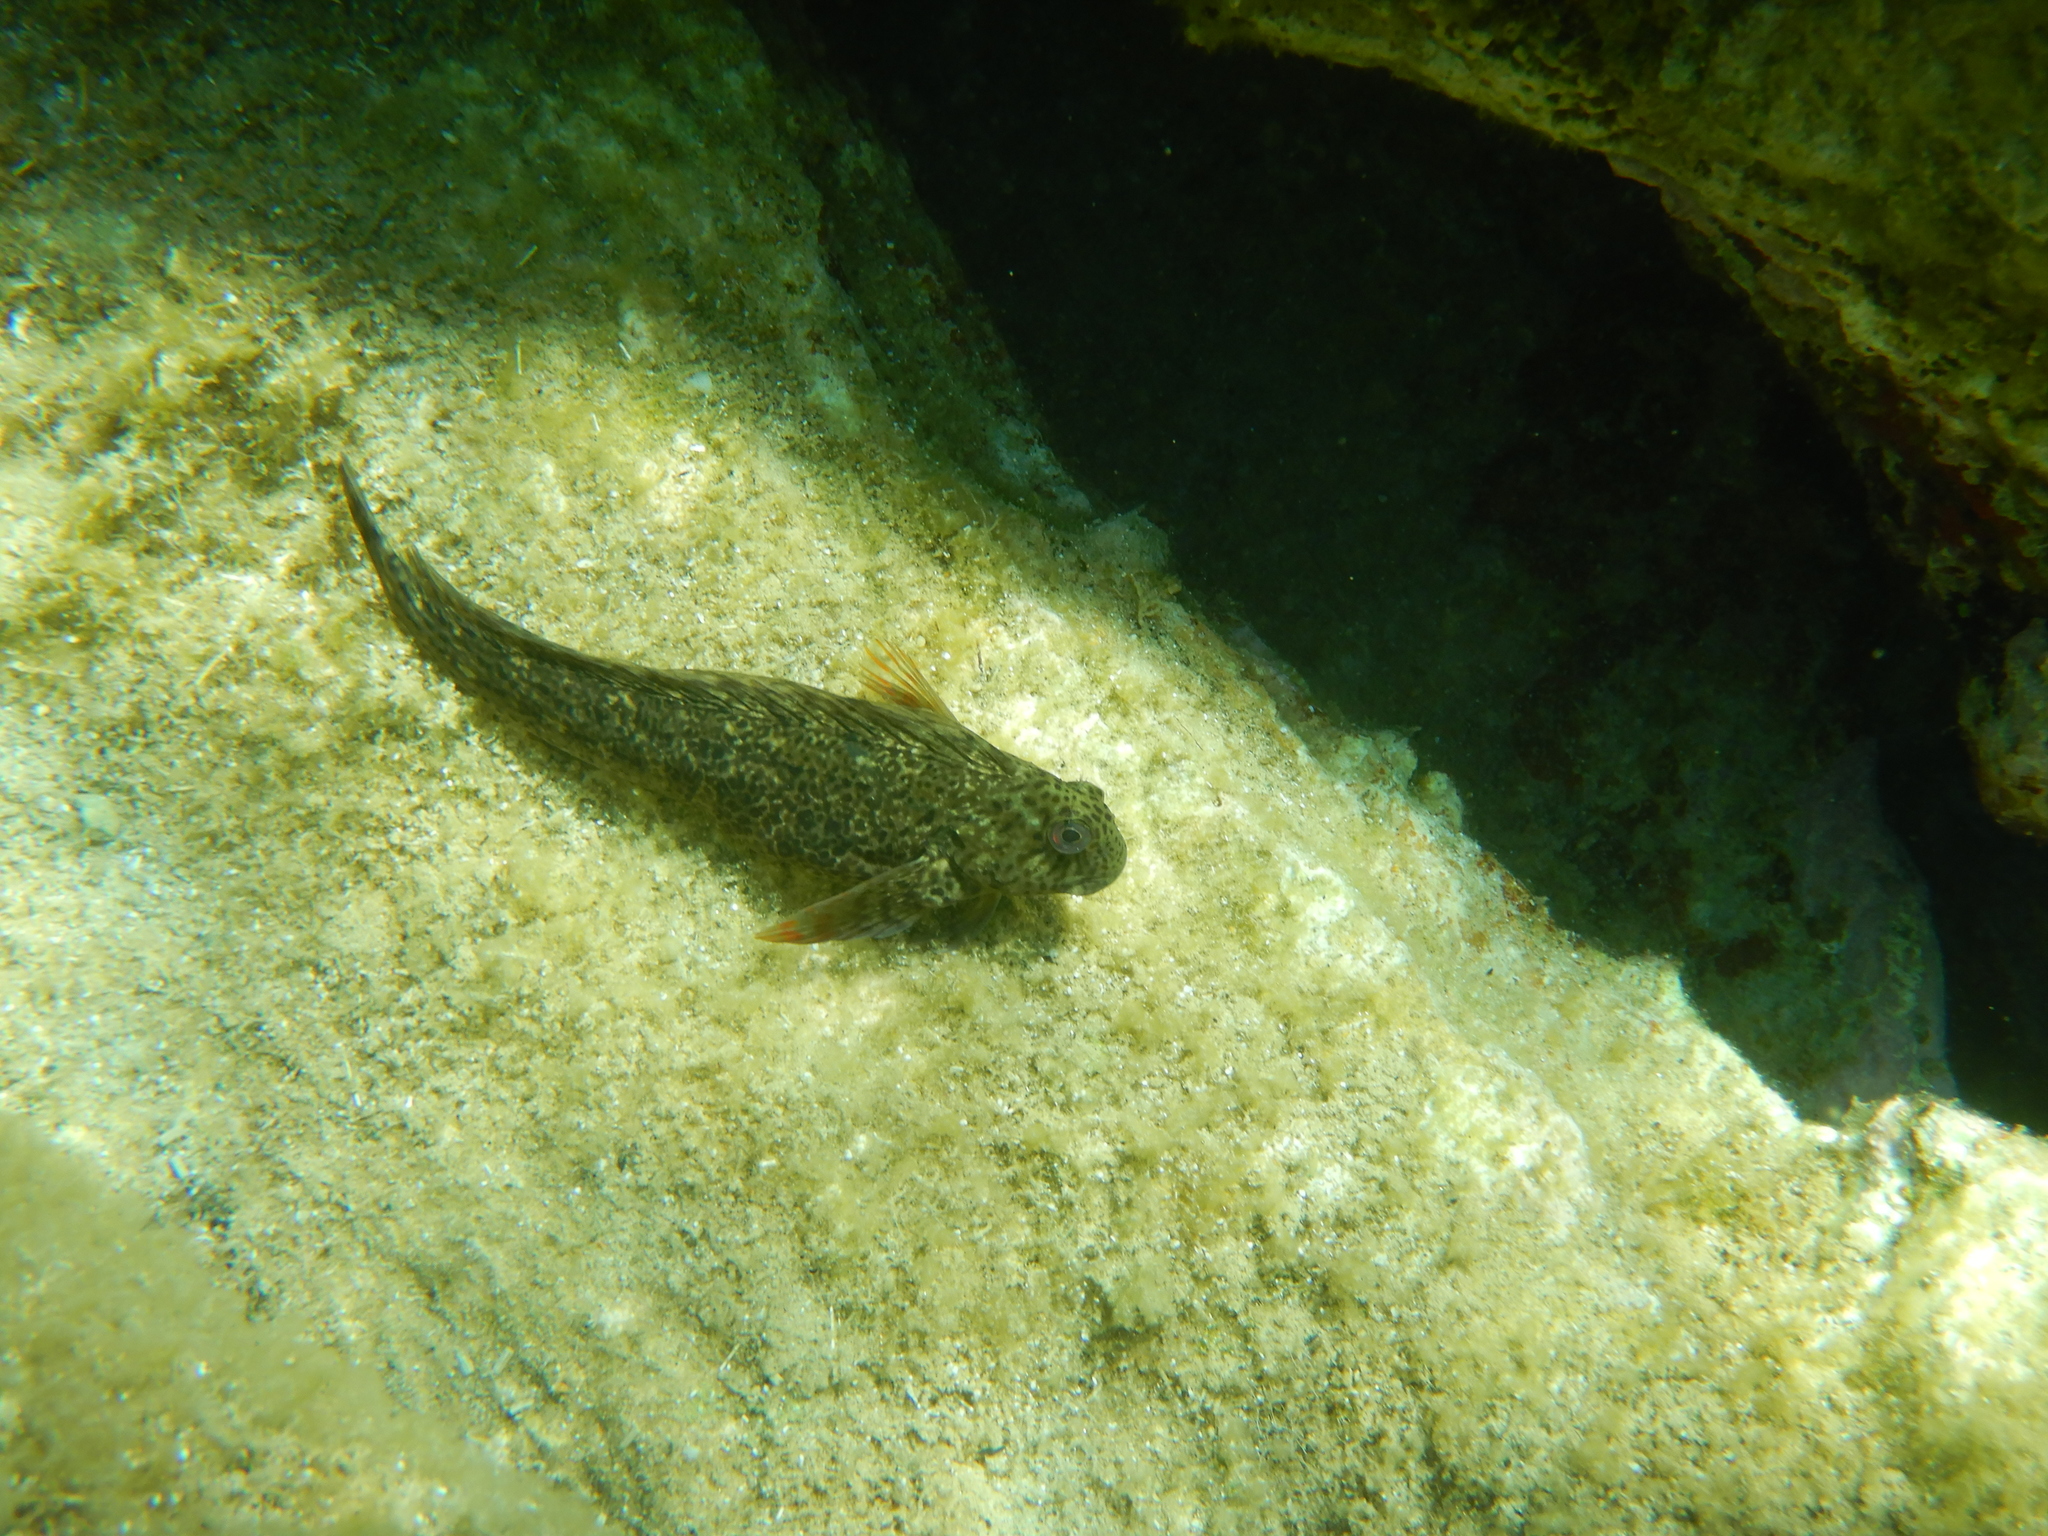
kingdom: Animalia
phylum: Chordata
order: Perciformes
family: Blenniidae
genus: Parablennius
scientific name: Parablennius sanguinolentus
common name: Black sea blenny
